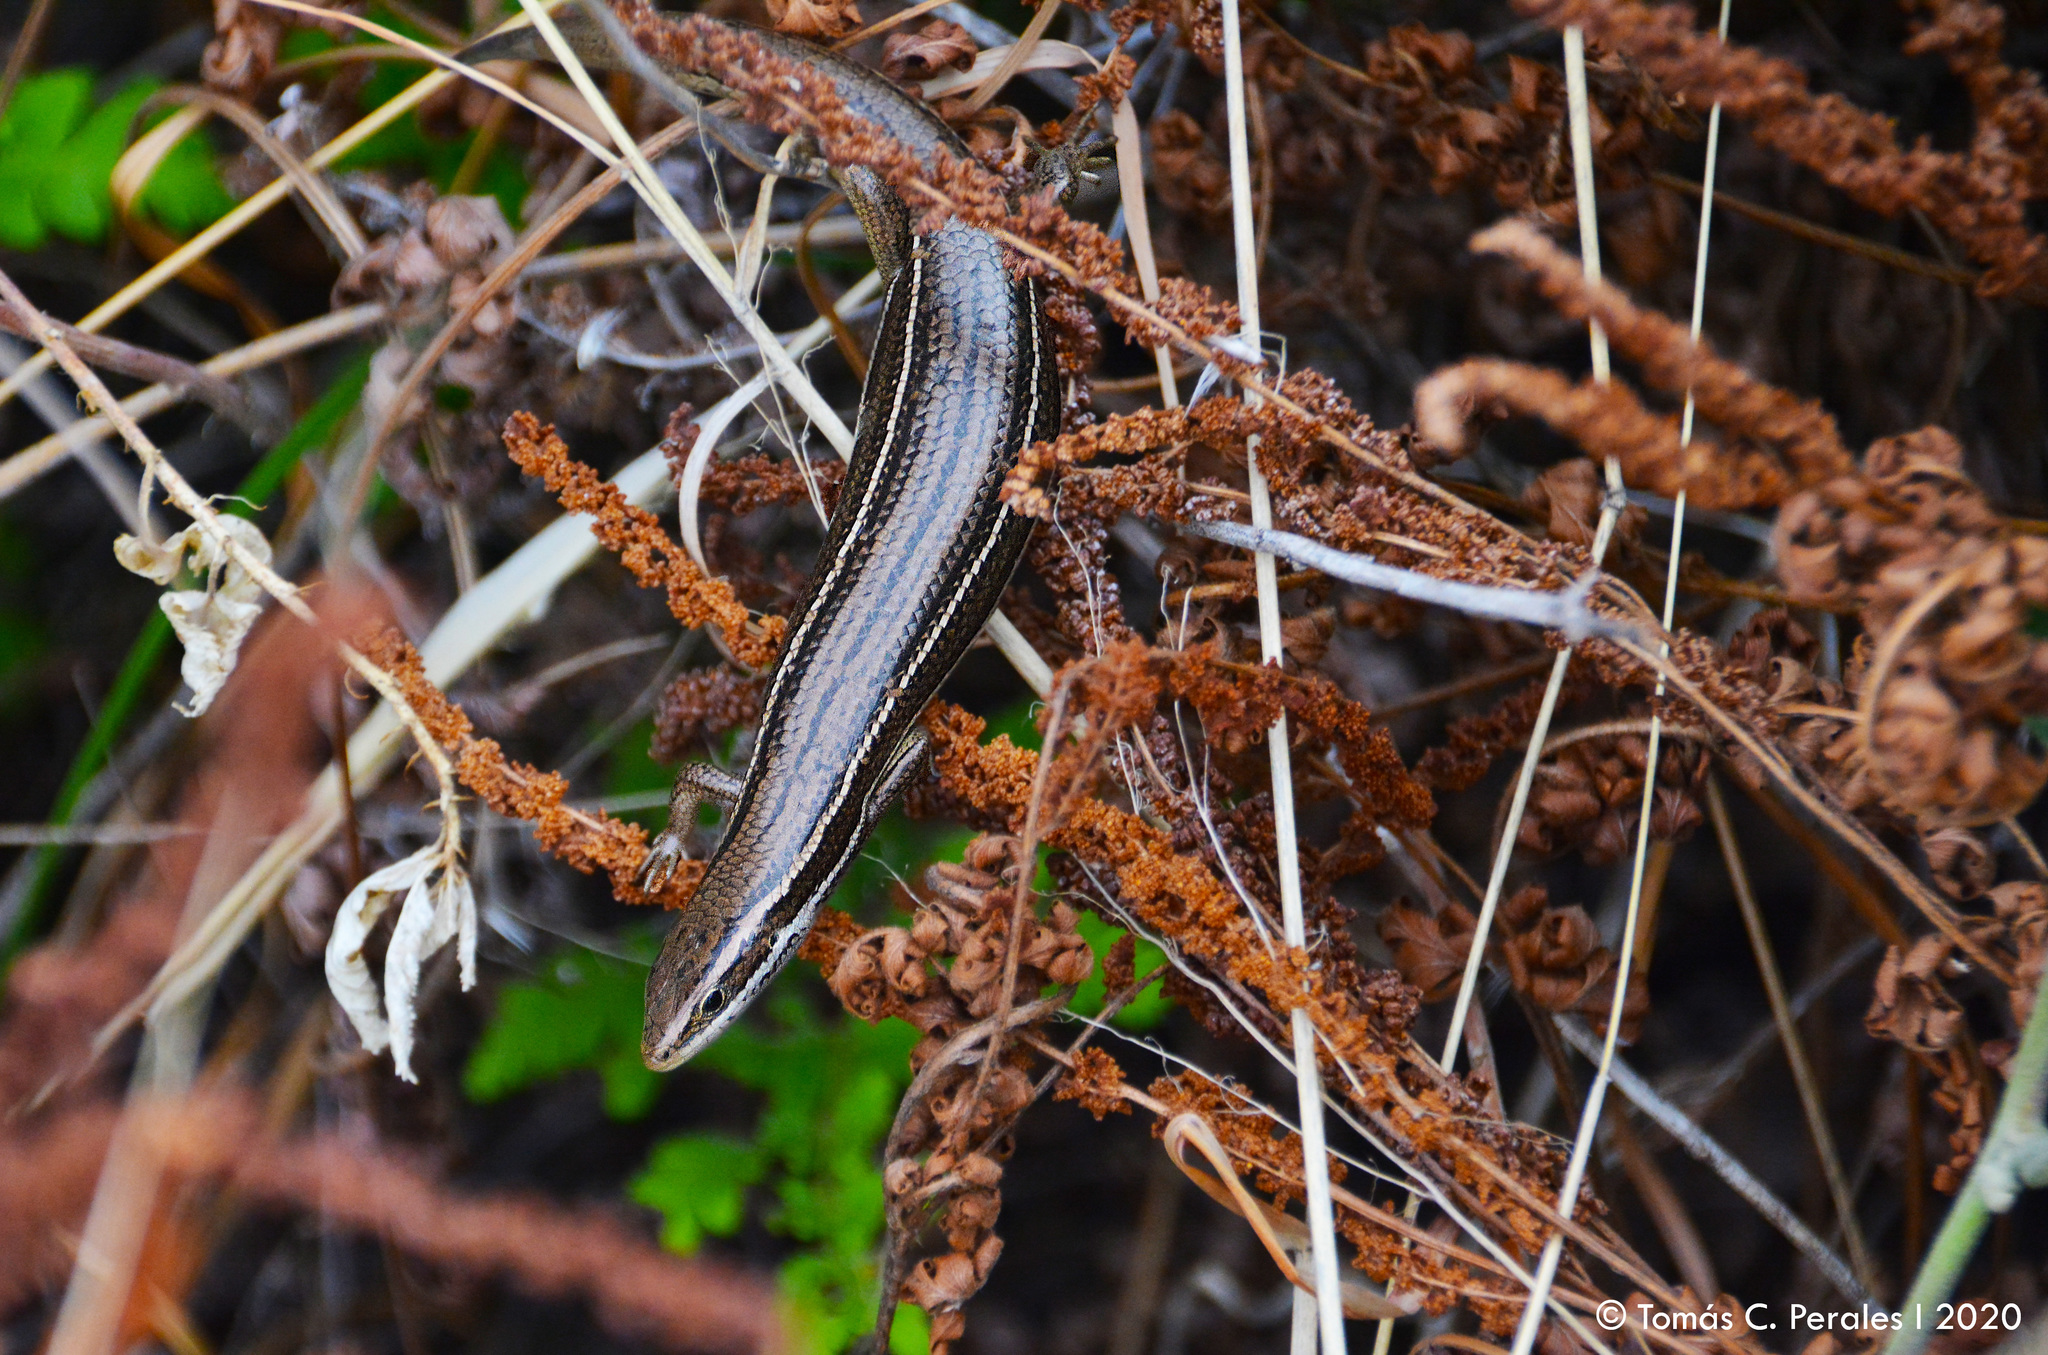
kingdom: Animalia
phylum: Chordata
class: Squamata
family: Scincidae
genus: Aspronema
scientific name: Aspronema dorsivittatum
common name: Paraguay mabuya
